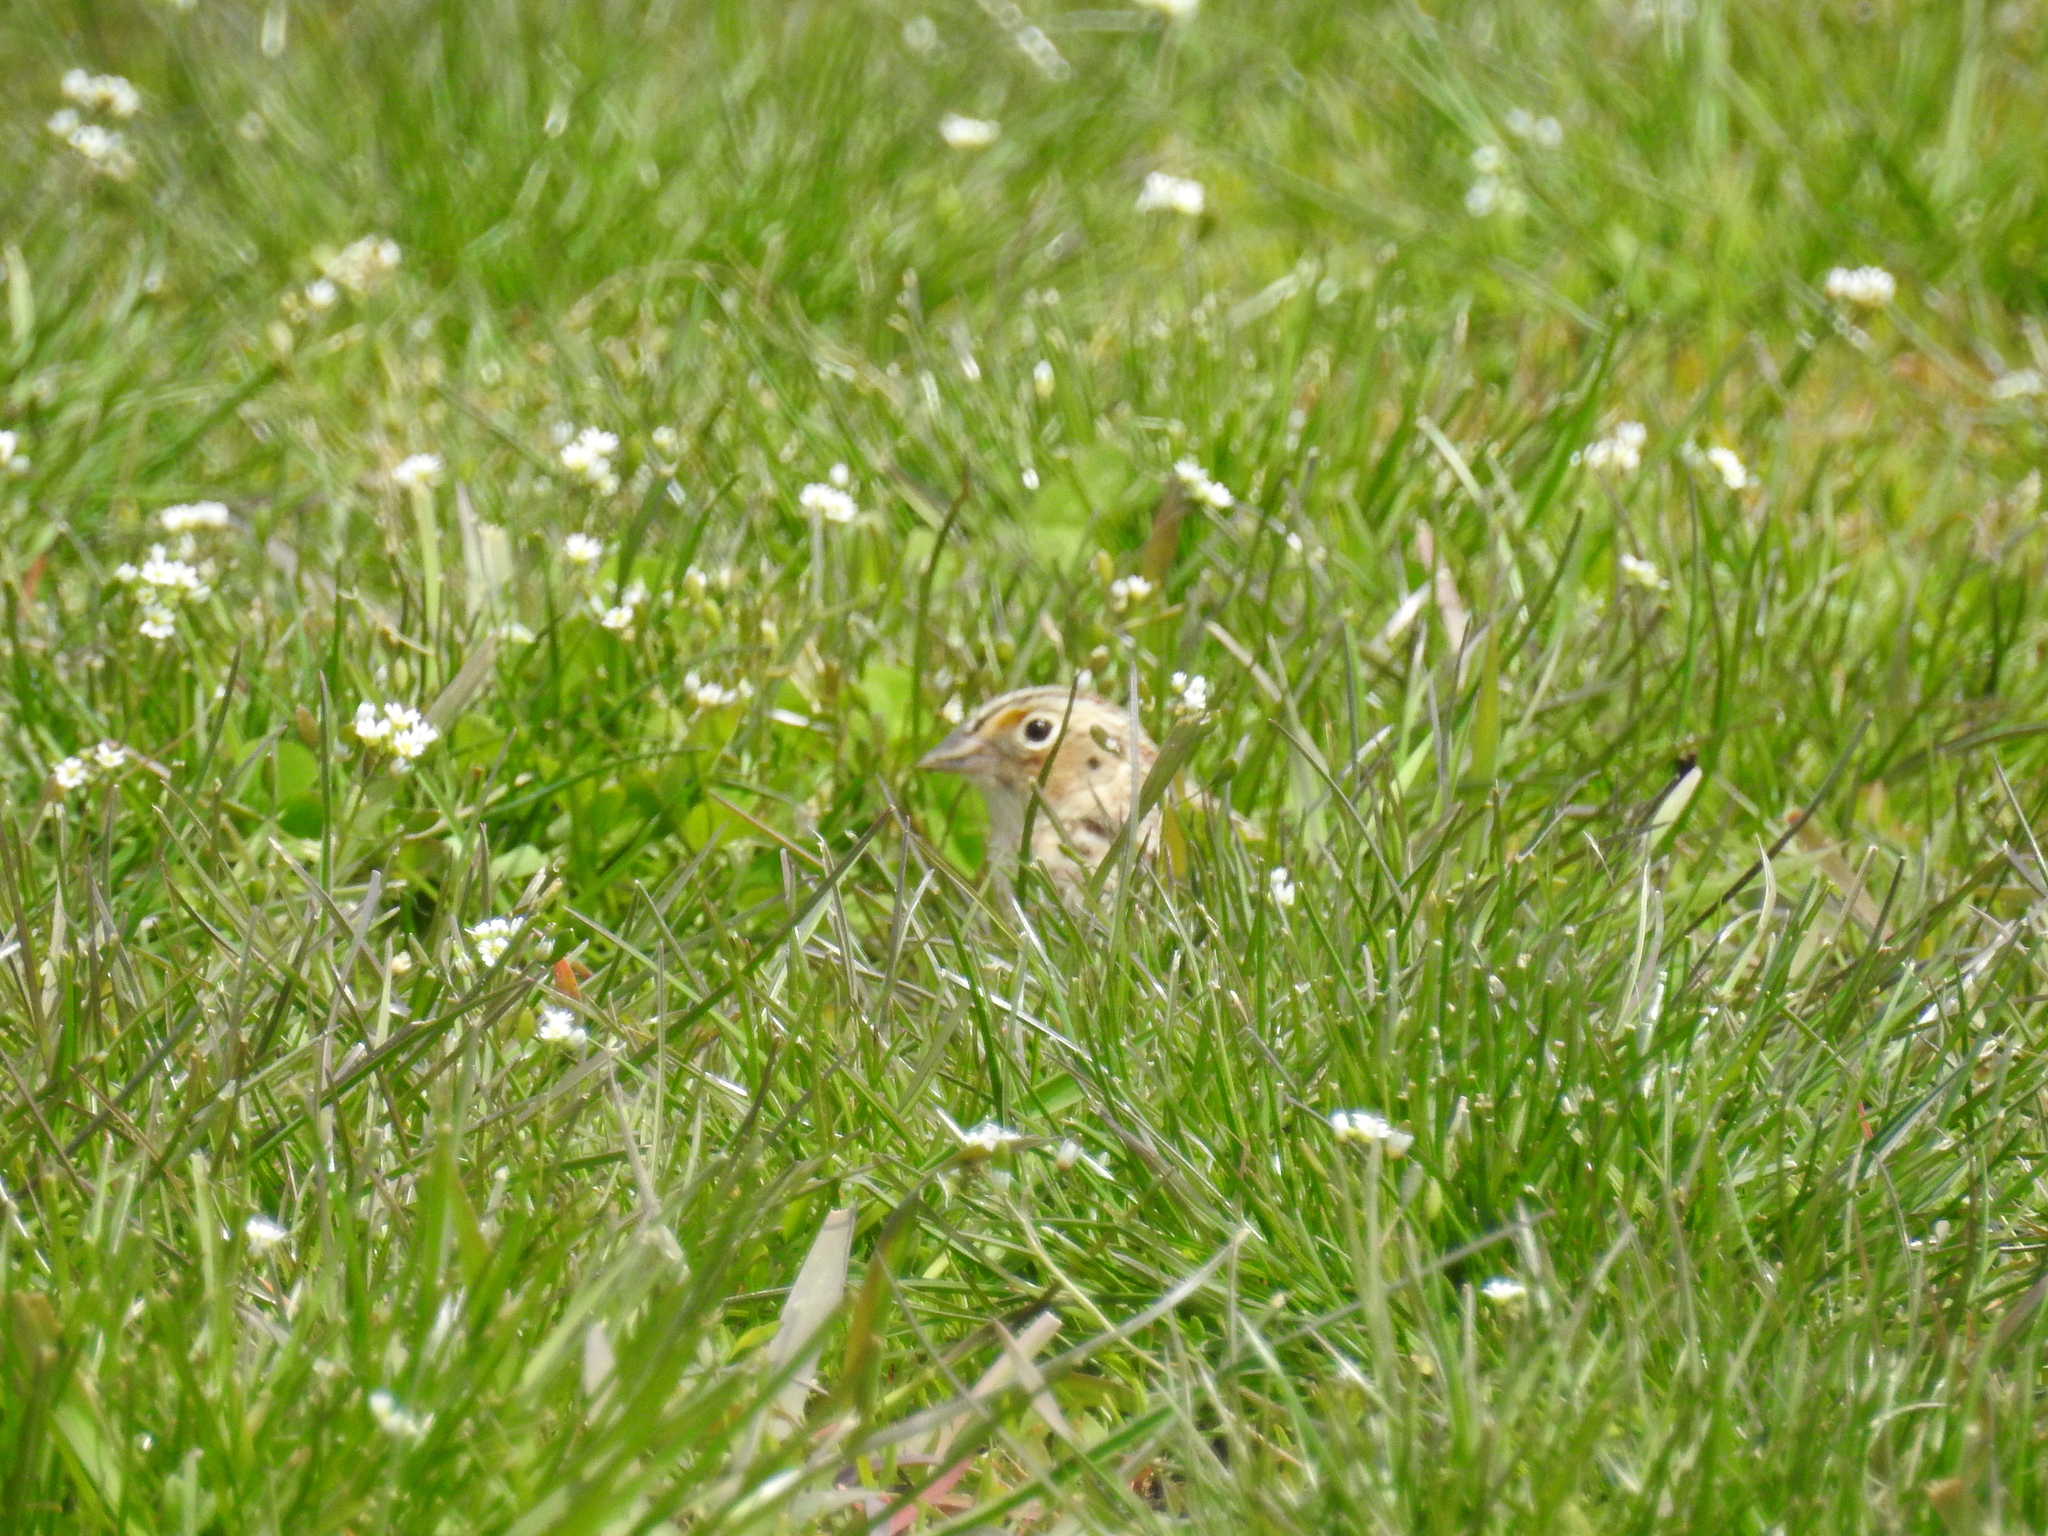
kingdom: Animalia
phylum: Chordata
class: Aves
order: Passeriformes
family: Passerellidae
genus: Ammodramus
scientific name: Ammodramus savannarum
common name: Grasshopper sparrow
